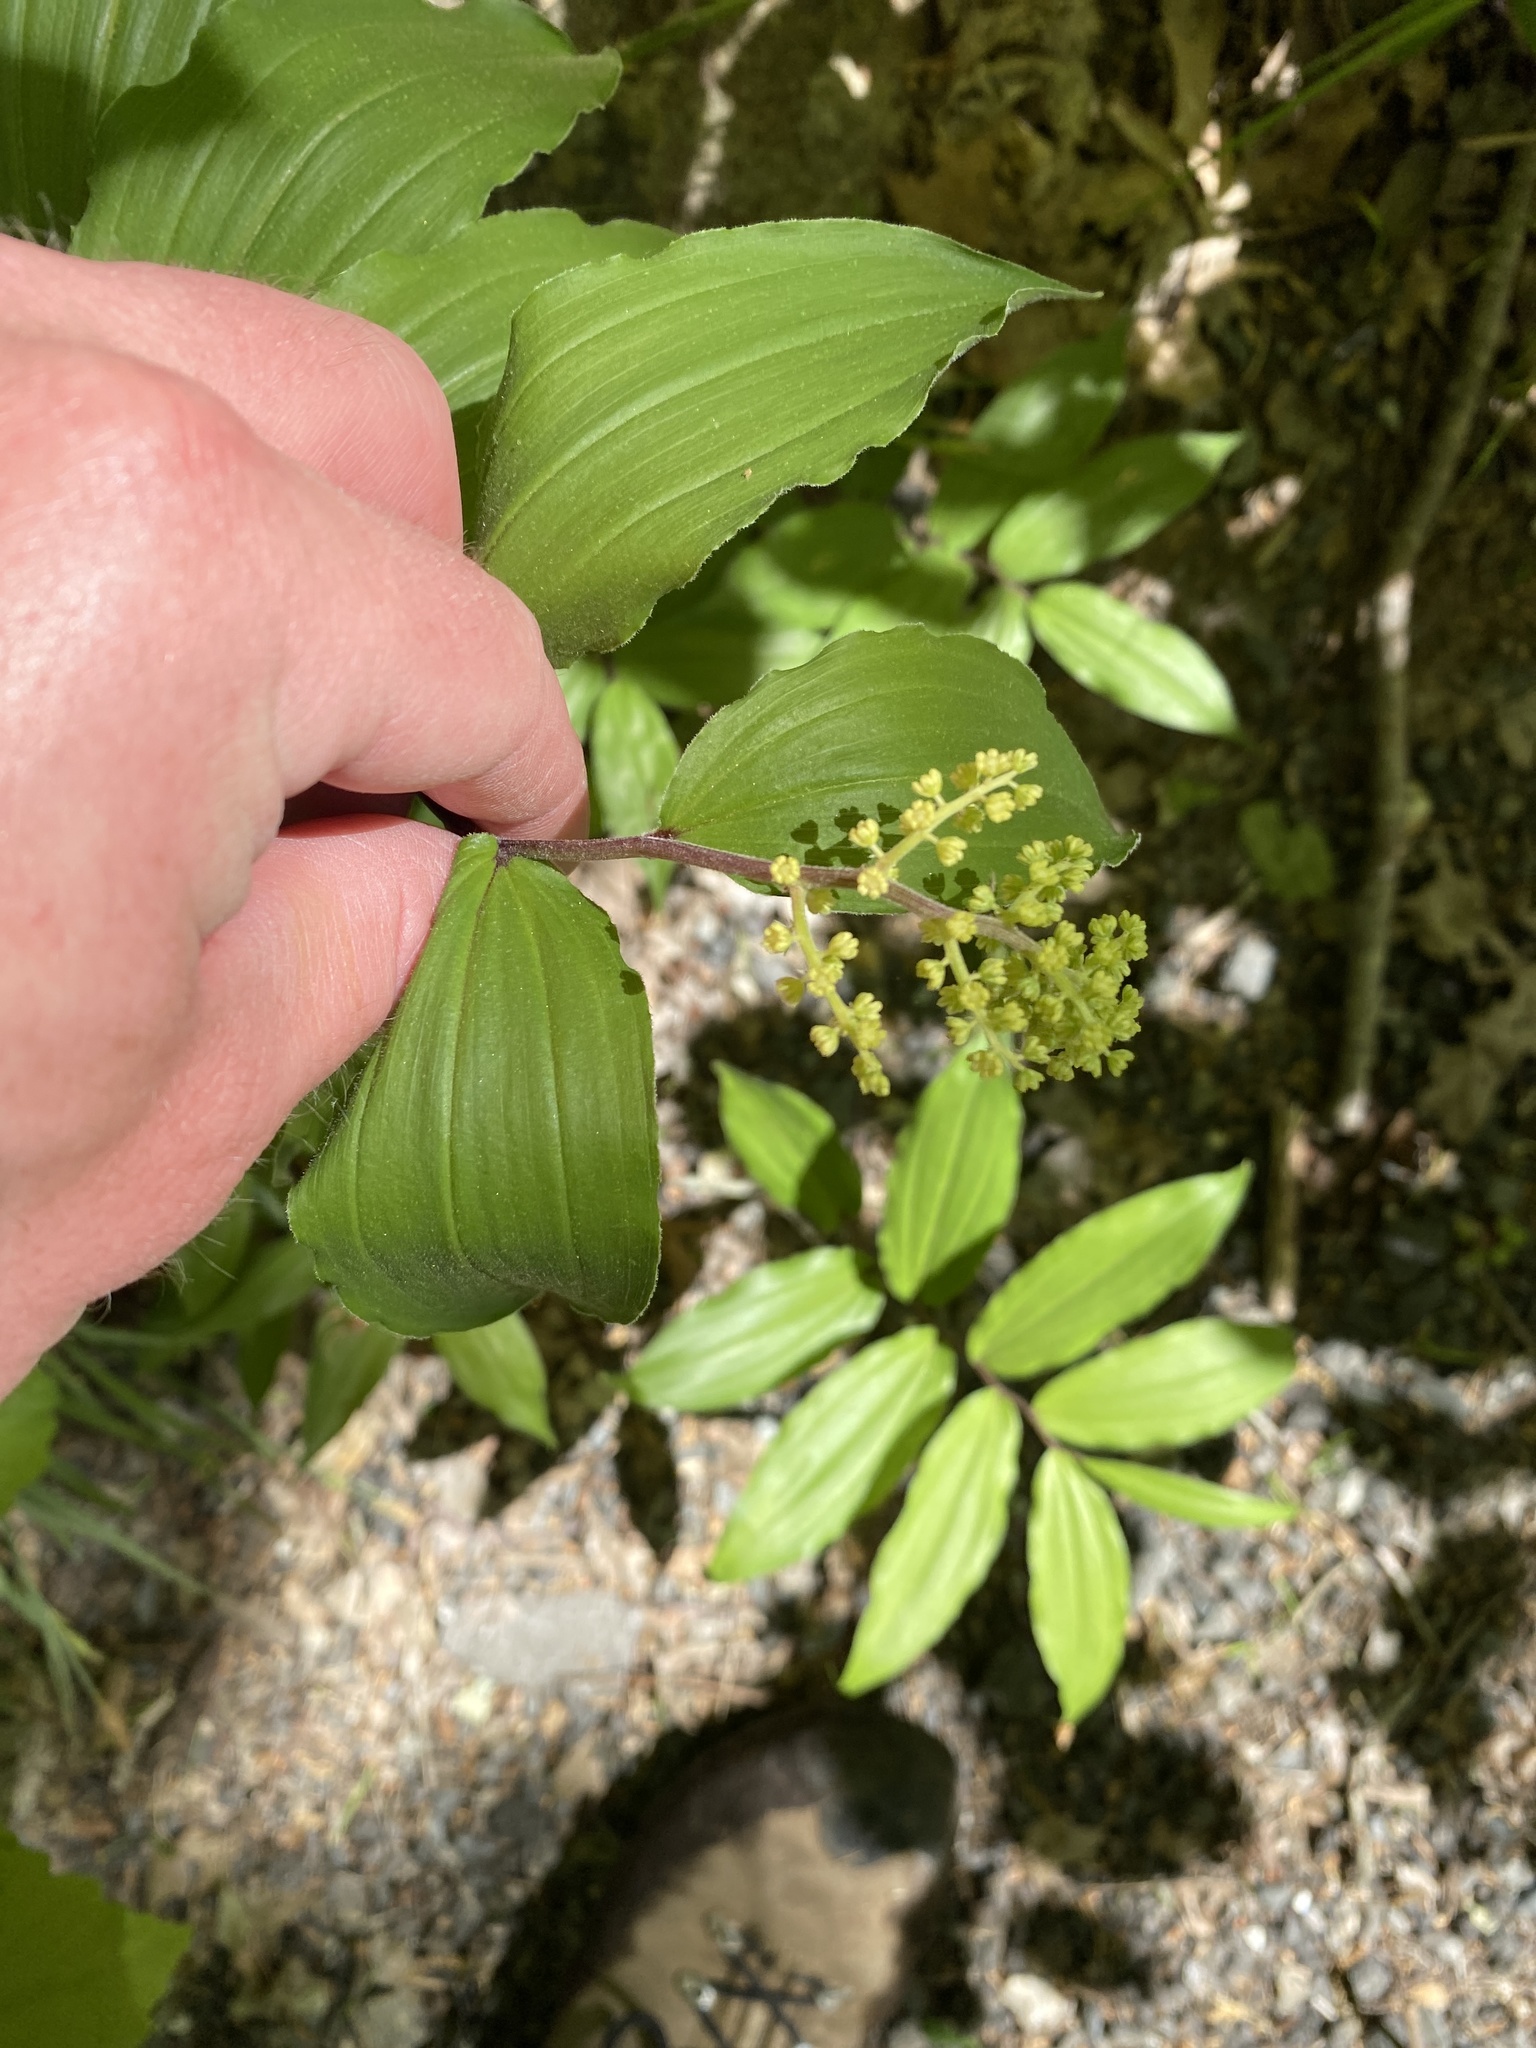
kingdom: Plantae
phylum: Tracheophyta
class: Liliopsida
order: Asparagales
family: Asparagaceae
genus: Maianthemum
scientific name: Maianthemum racemosum
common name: False spikenard
